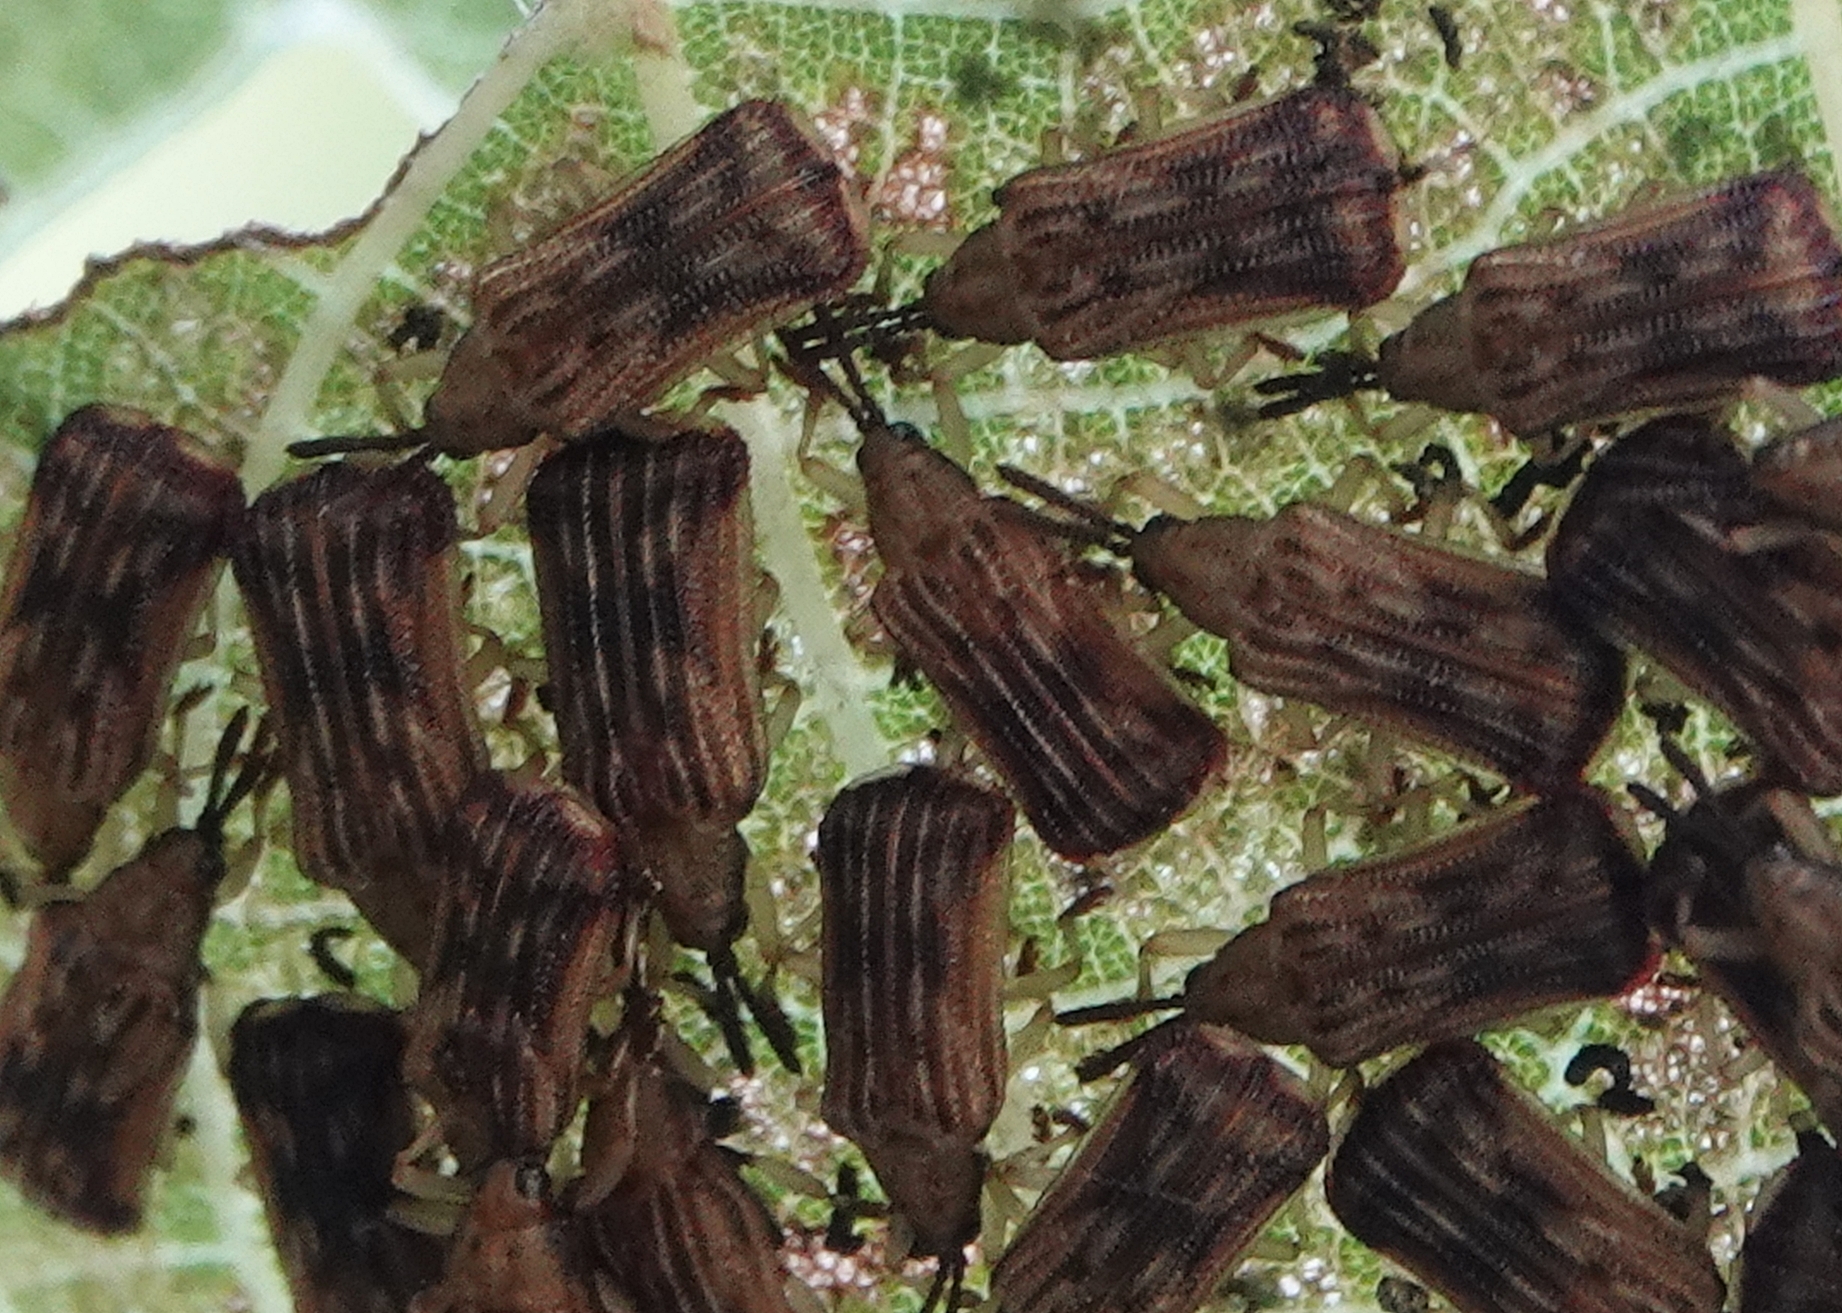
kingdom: Animalia
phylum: Arthropoda
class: Insecta
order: Coleoptera
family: Chrysomelidae
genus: Baliosus
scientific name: Baliosus nervosus
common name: Basswood leaf miner
